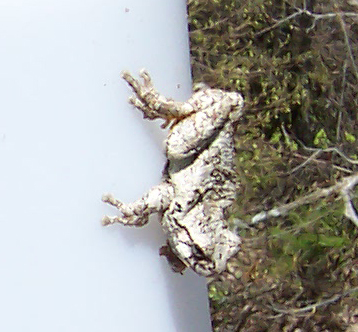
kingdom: Animalia
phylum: Chordata
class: Amphibia
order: Anura
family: Hylidae
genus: Dryophytes
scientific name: Dryophytes versicolor
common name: Gray treefrog
